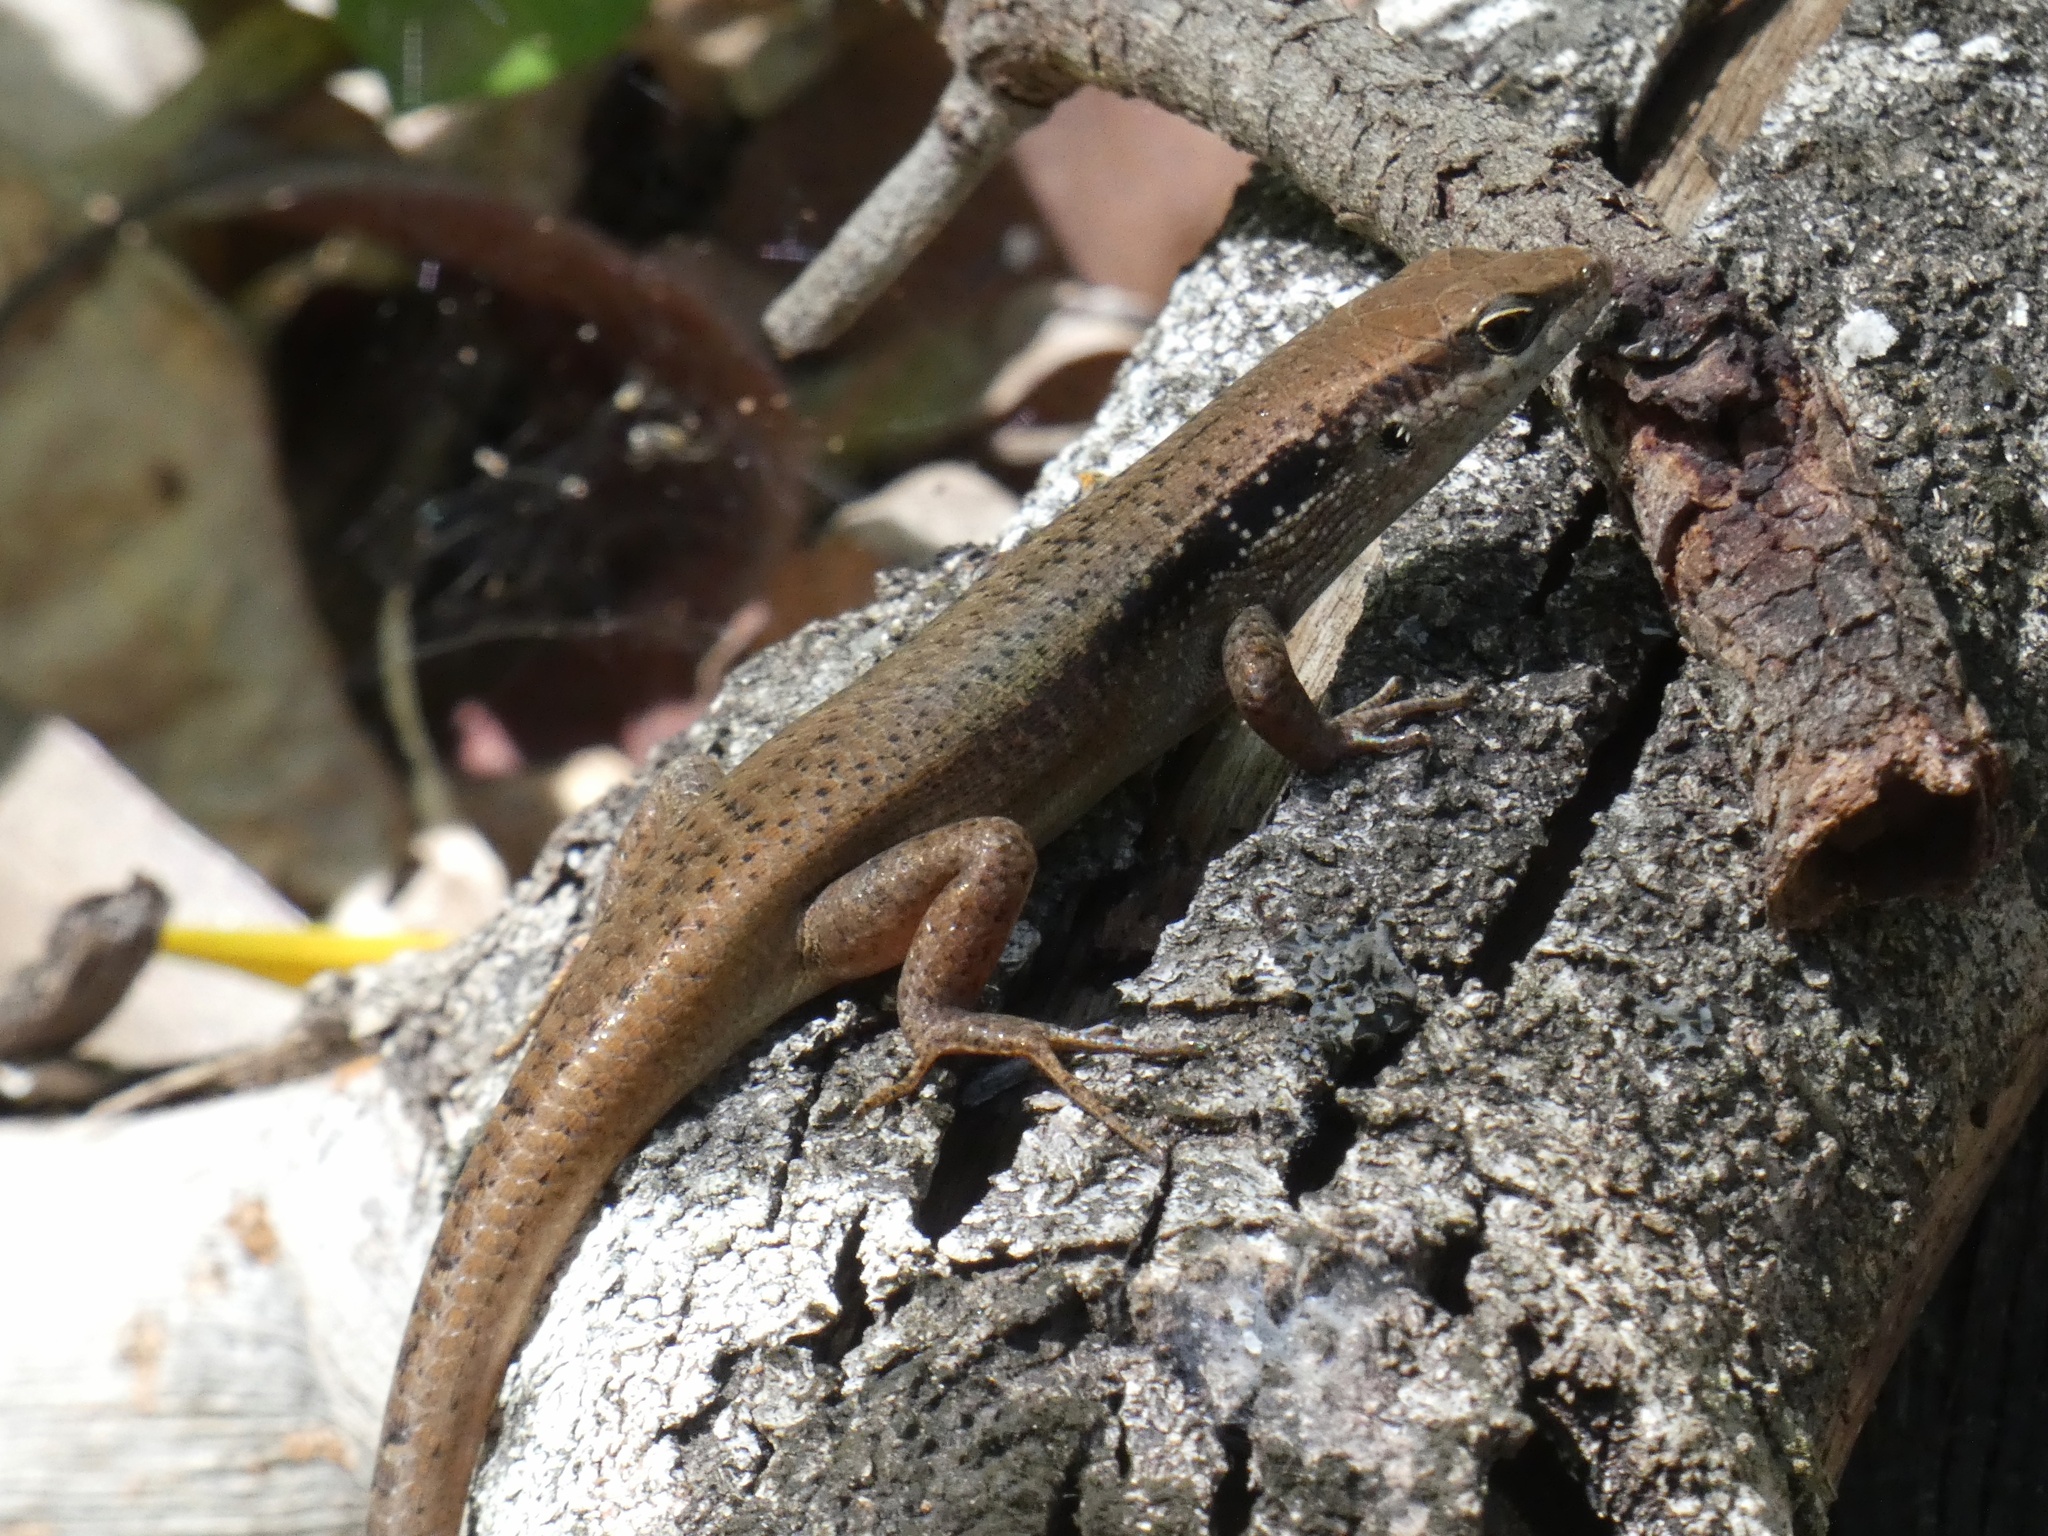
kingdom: Animalia
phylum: Chordata
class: Squamata
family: Scincidae
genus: Carlia
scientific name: Carlia longipes
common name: Closed-litter rainbow-skink
